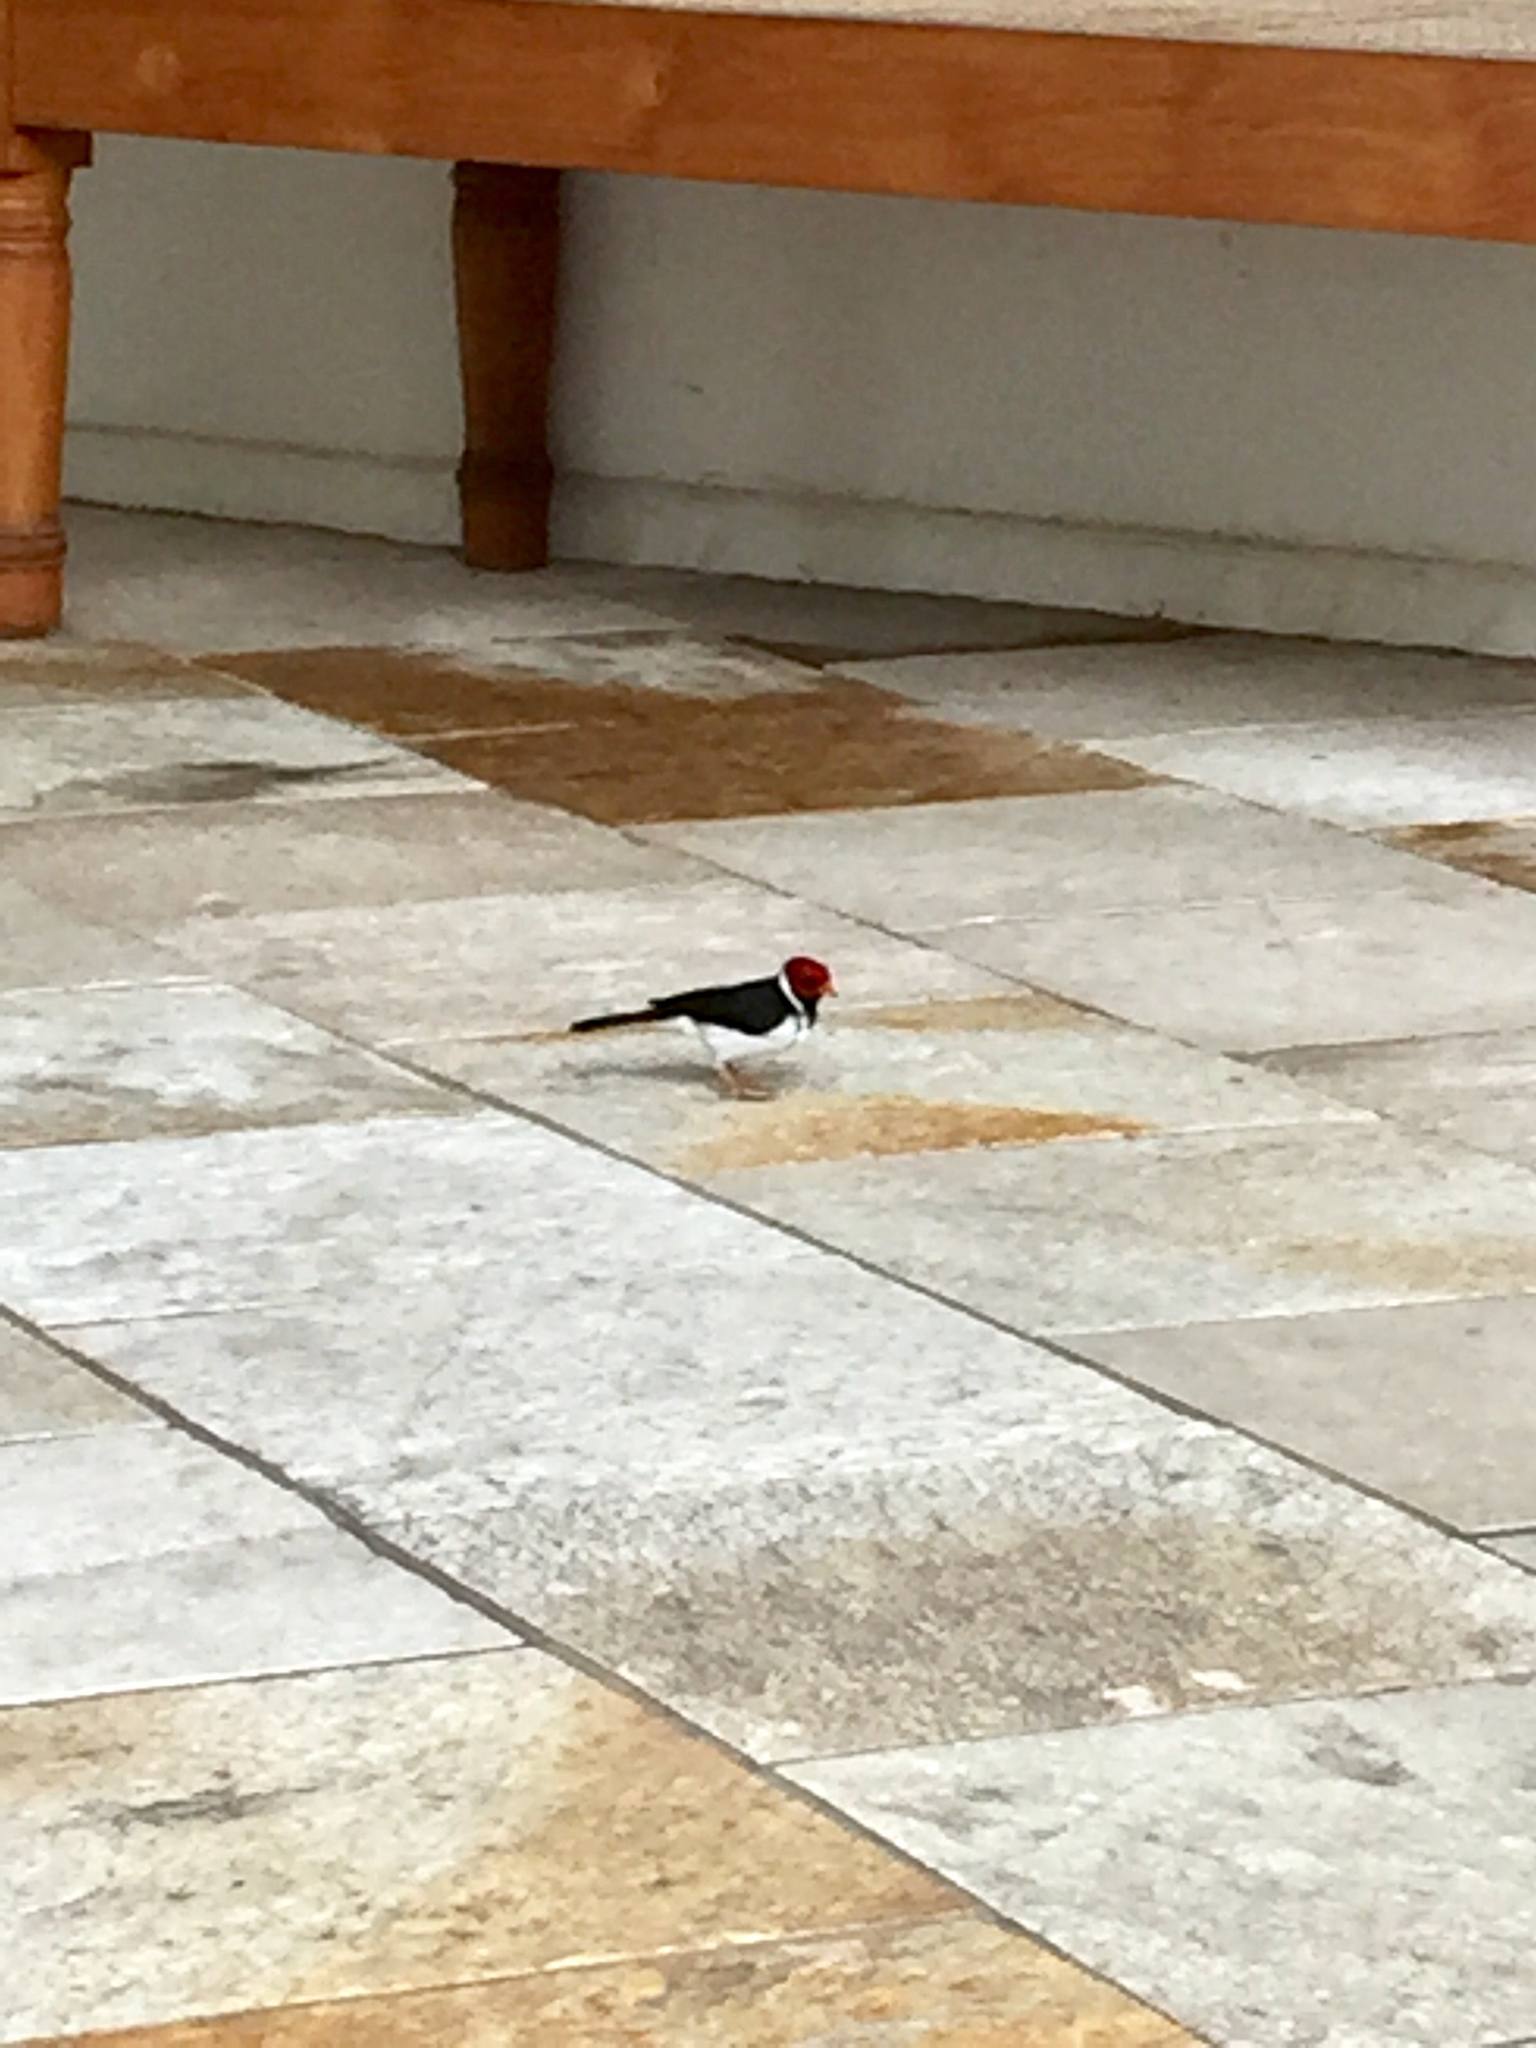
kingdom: Animalia
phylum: Chordata
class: Aves
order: Passeriformes
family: Thraupidae
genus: Paroaria
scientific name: Paroaria capitata
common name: Yellow-billed cardinal
